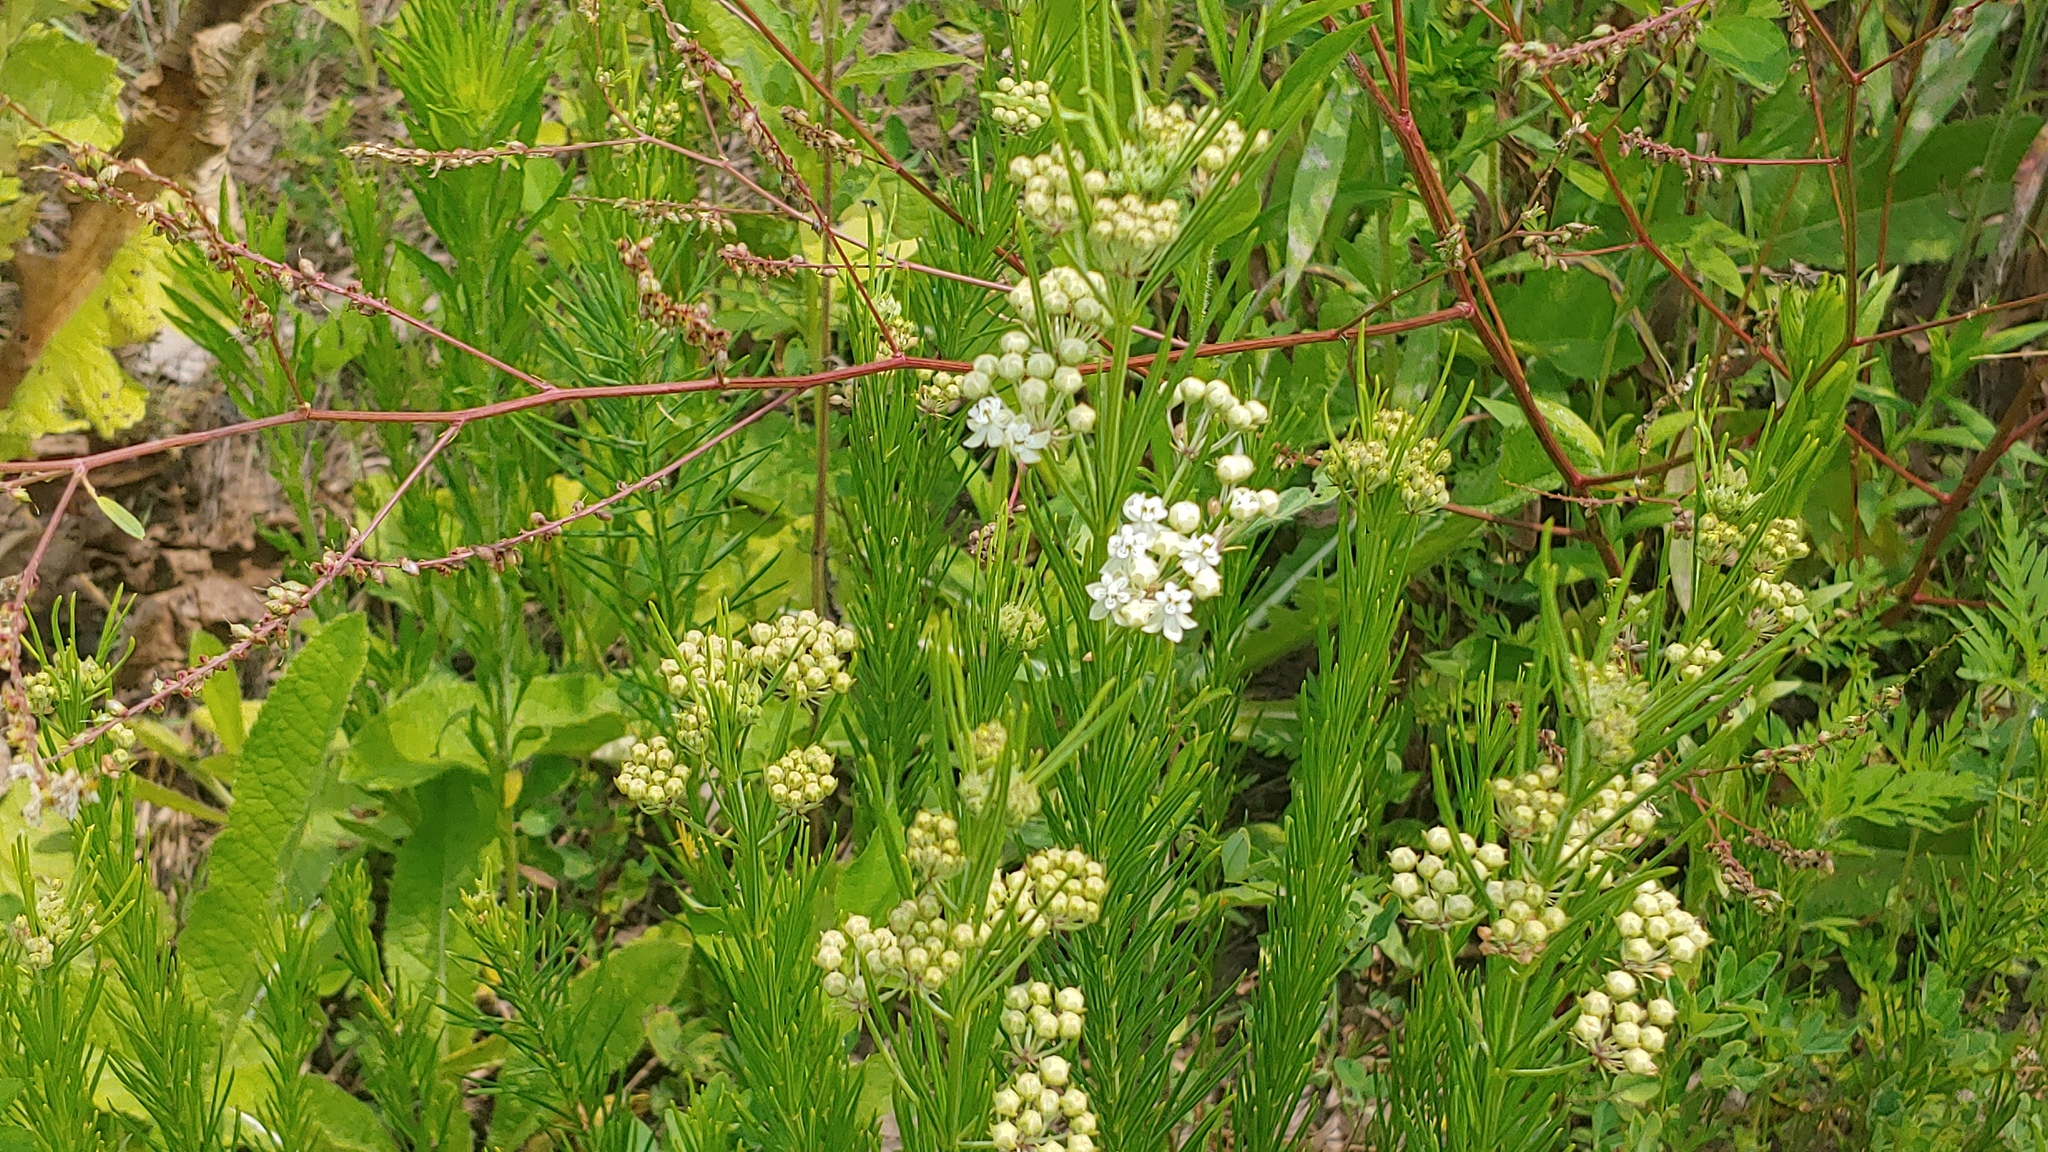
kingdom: Plantae
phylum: Tracheophyta
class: Magnoliopsida
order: Gentianales
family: Apocynaceae
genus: Asclepias
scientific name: Asclepias verticillata
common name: Eastern whorled milkweed
